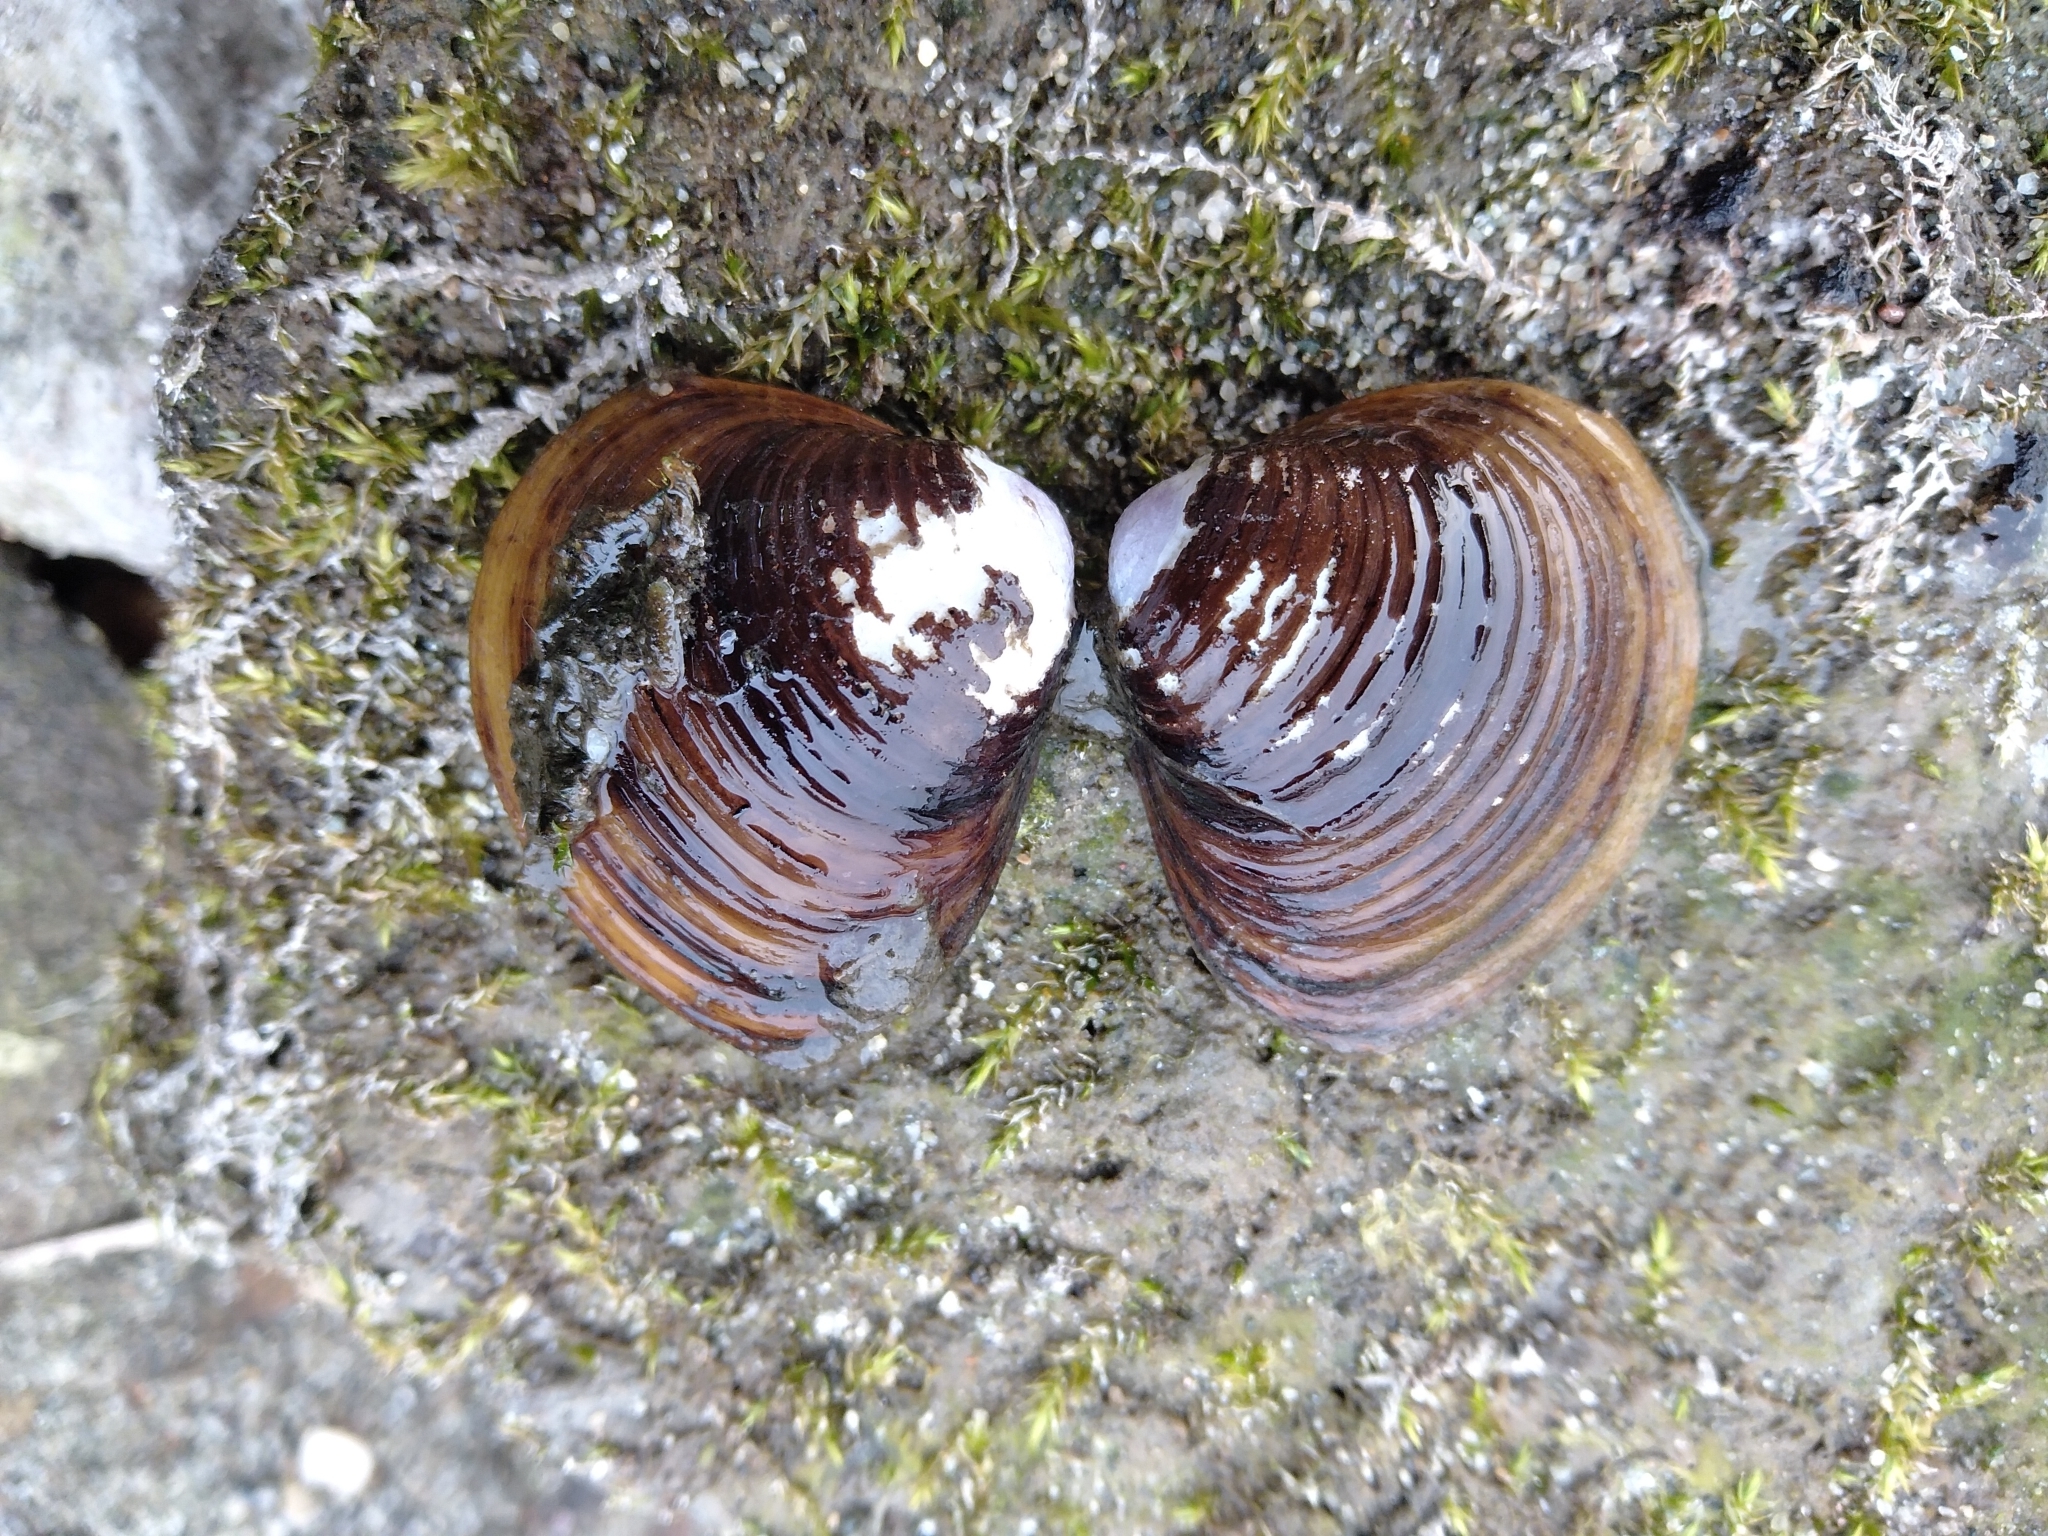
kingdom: Animalia
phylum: Mollusca
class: Bivalvia
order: Venerida
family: Cyrenidae
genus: Corbicula
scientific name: Corbicula fluminea
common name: Asian clam
